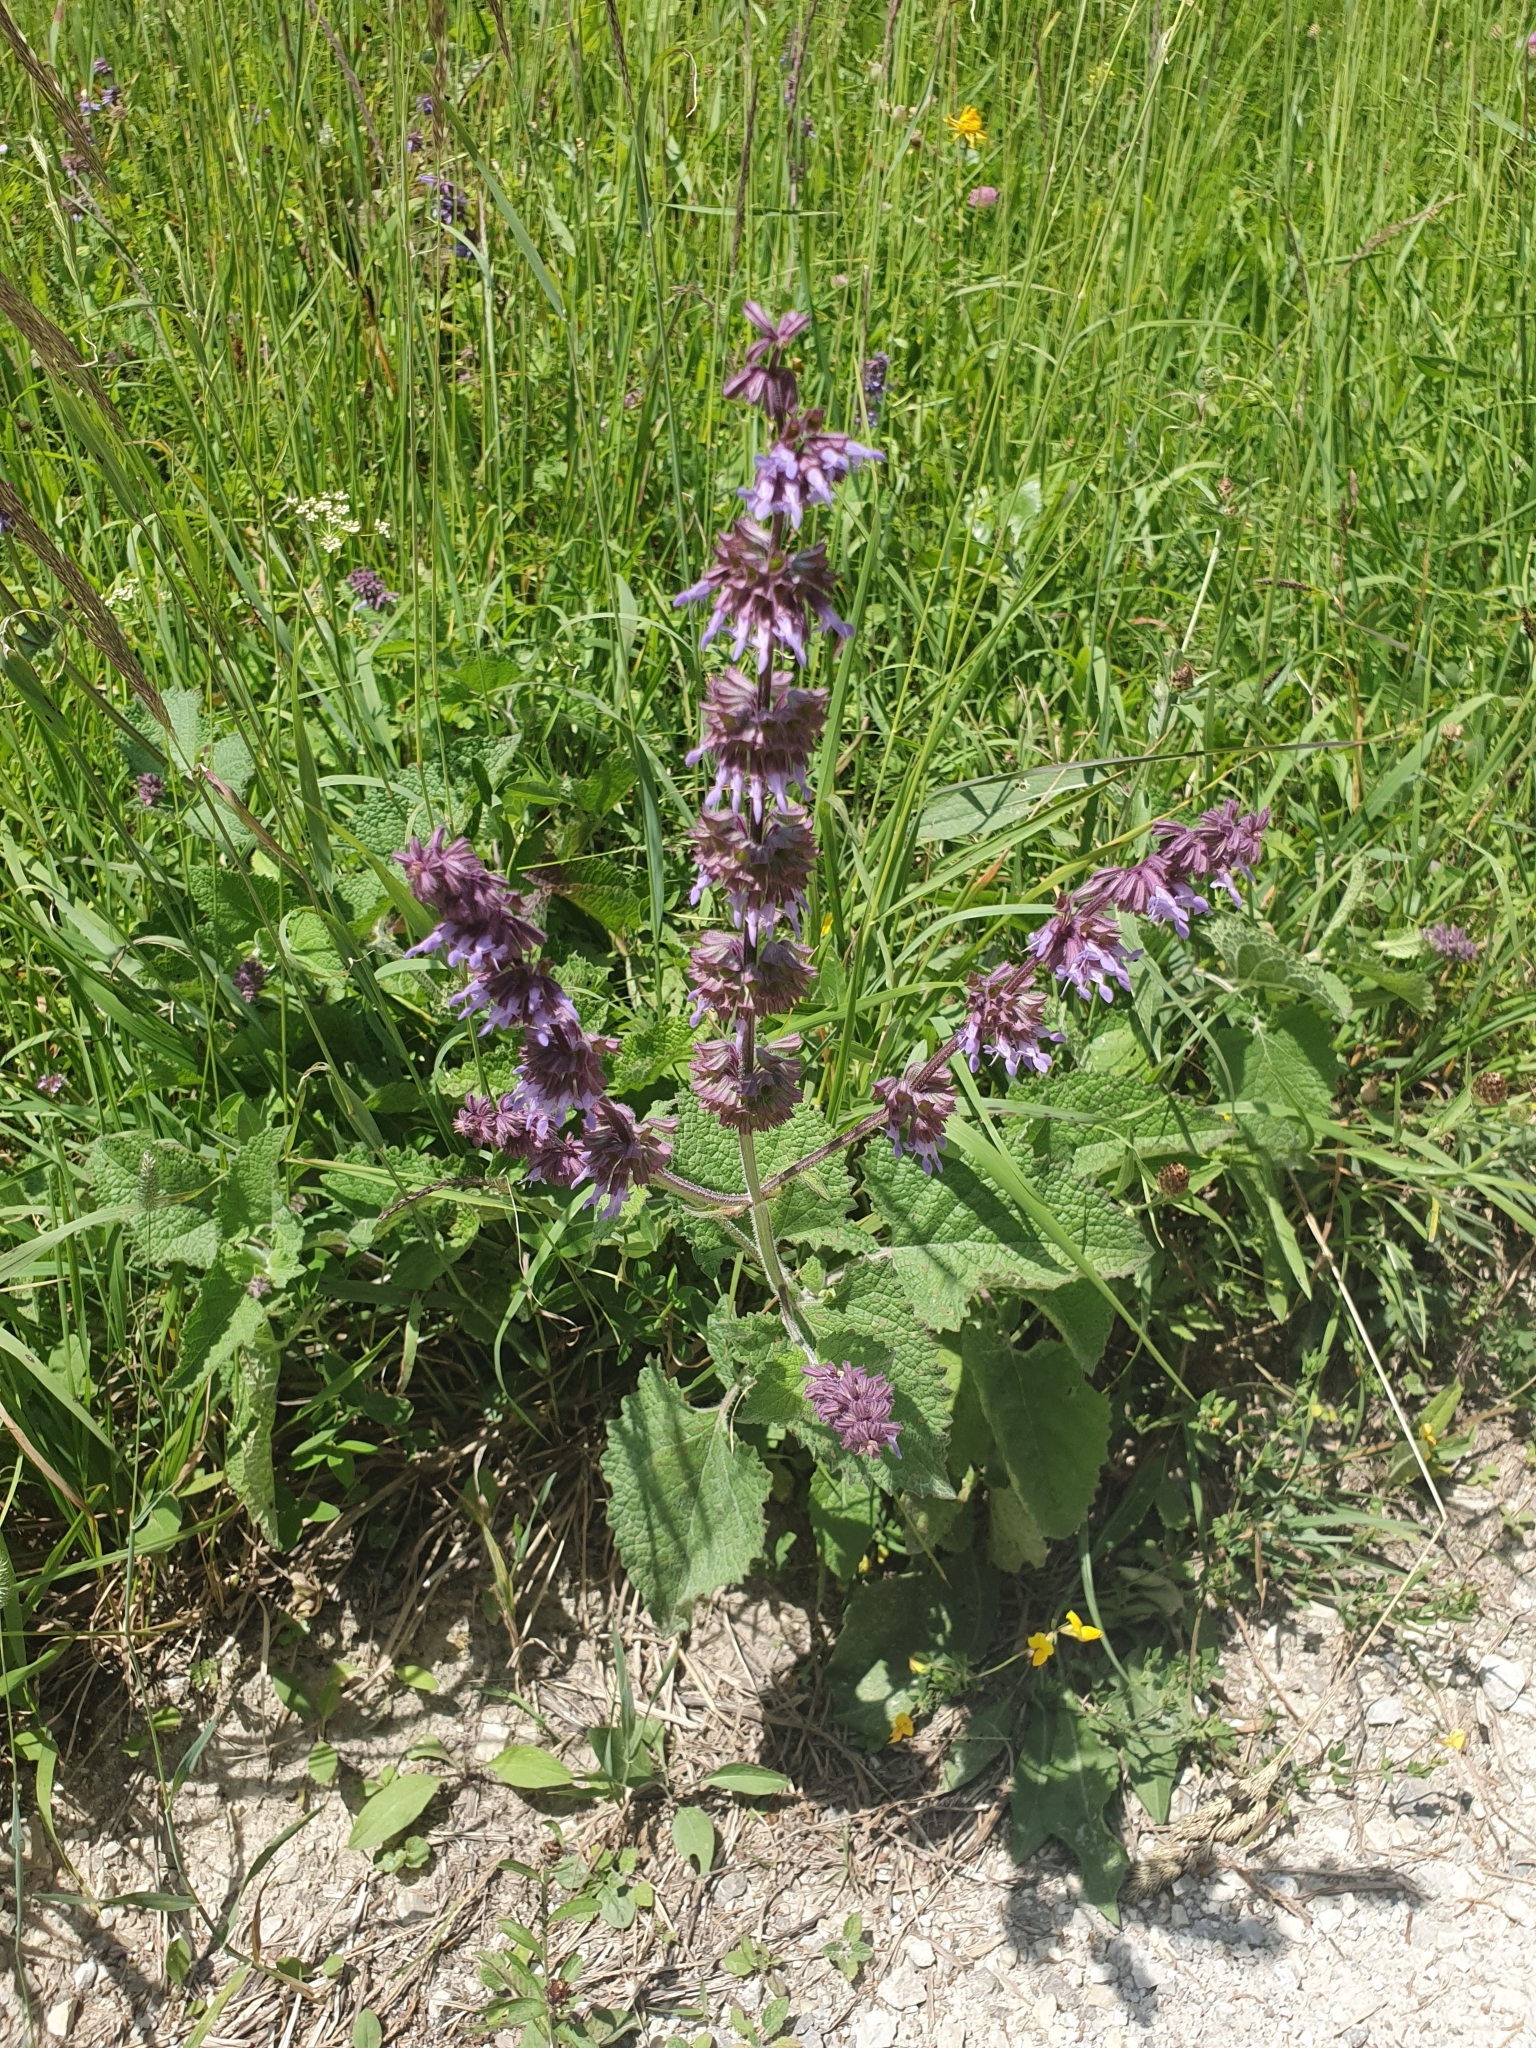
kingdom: Plantae
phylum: Tracheophyta
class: Magnoliopsida
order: Lamiales
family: Lamiaceae
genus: Salvia
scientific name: Salvia verticillata
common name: Whorled clary
